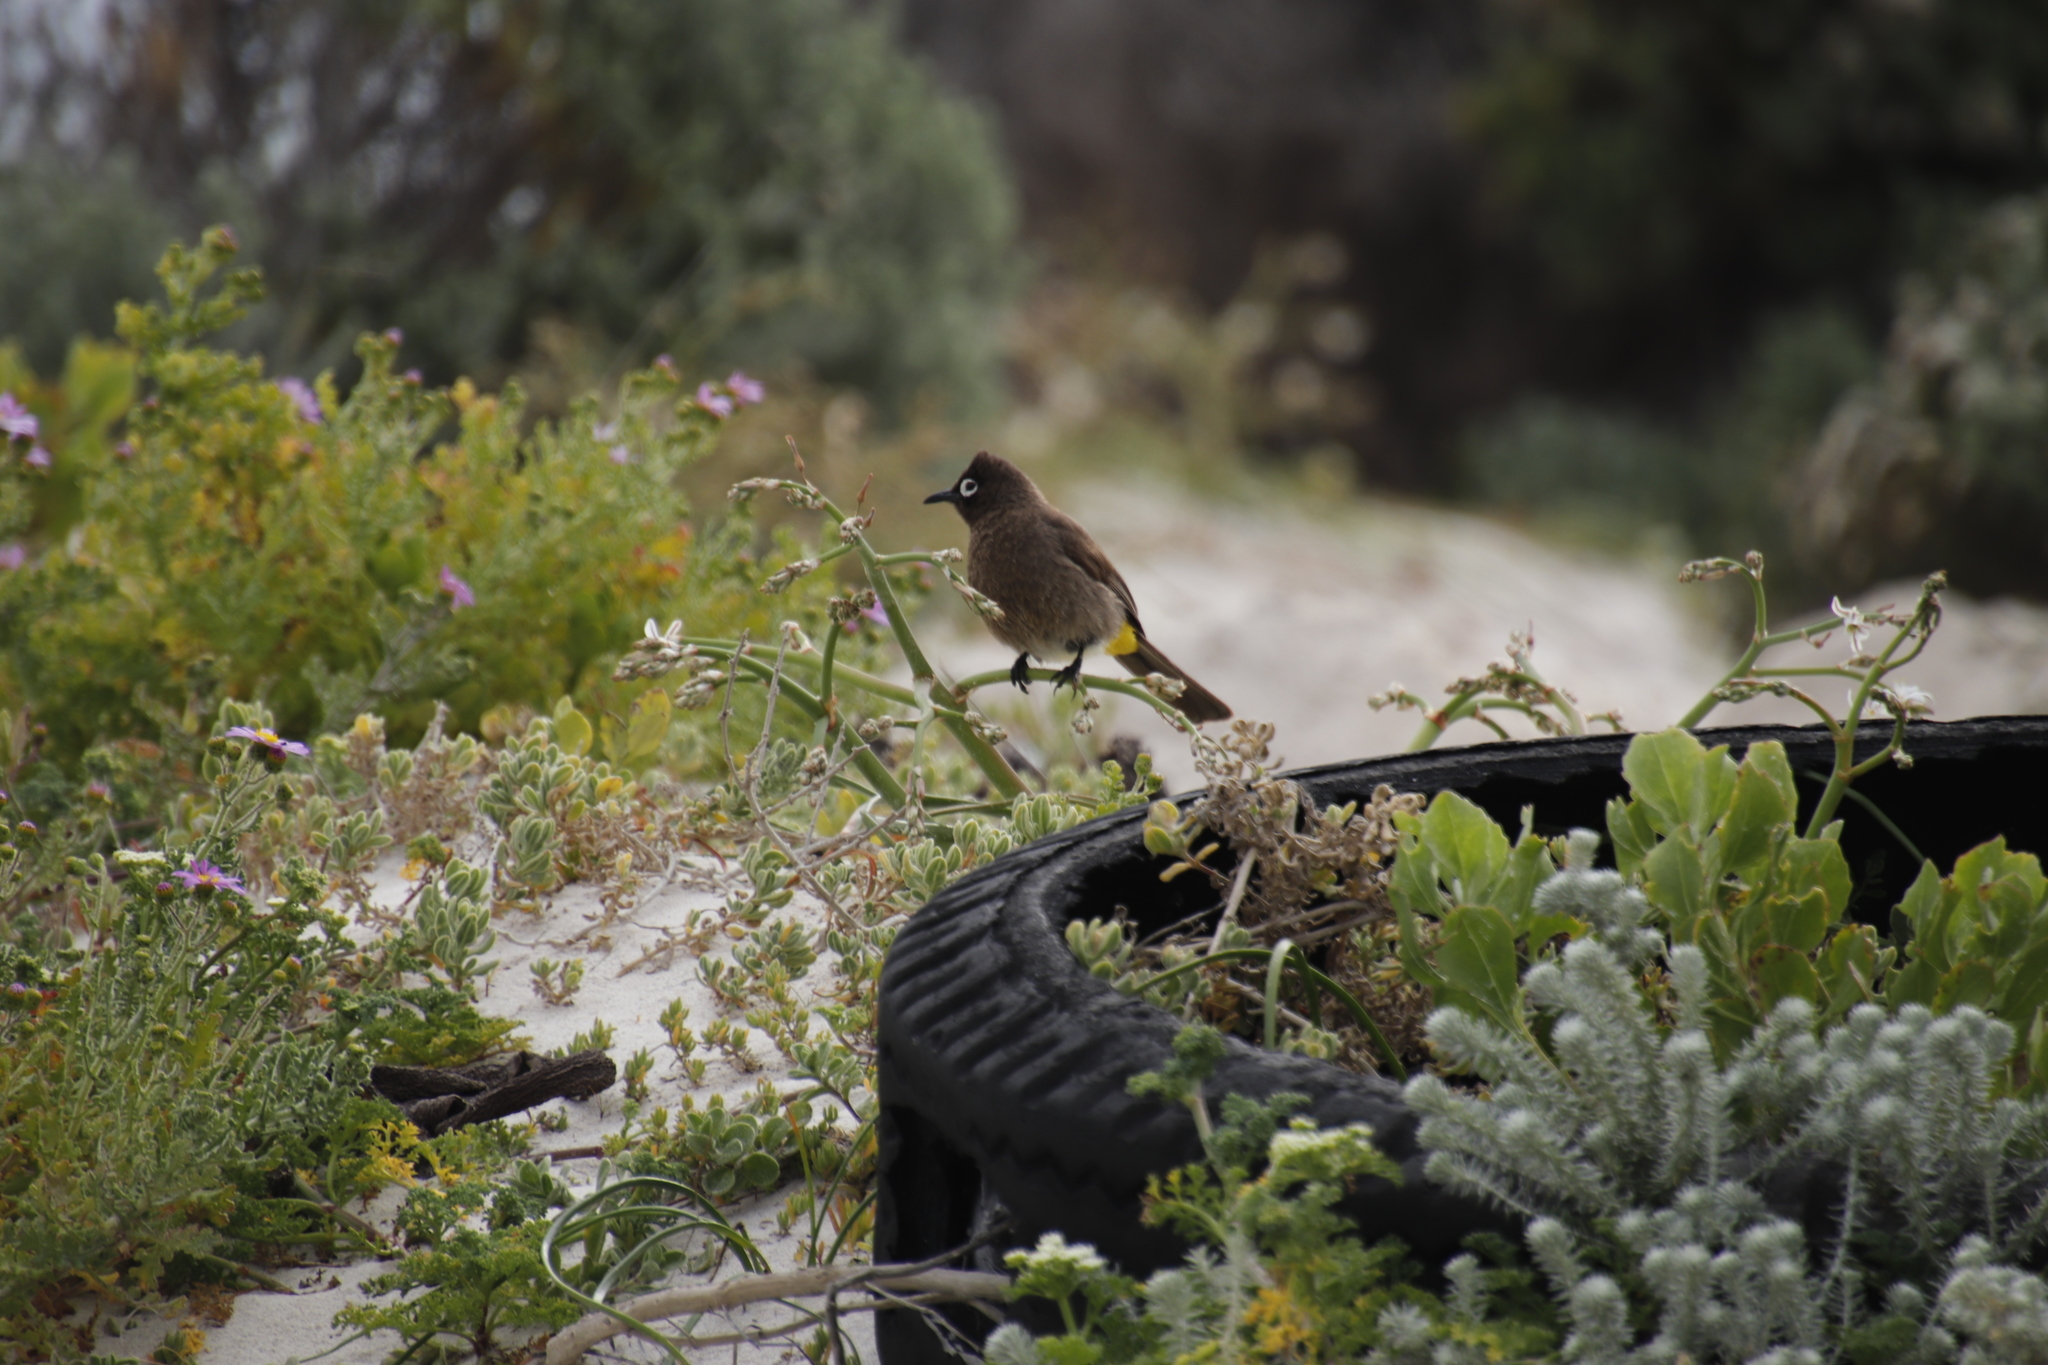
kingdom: Animalia
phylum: Chordata
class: Aves
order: Passeriformes
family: Pycnonotidae
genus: Pycnonotus
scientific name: Pycnonotus capensis
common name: Cape bulbul
